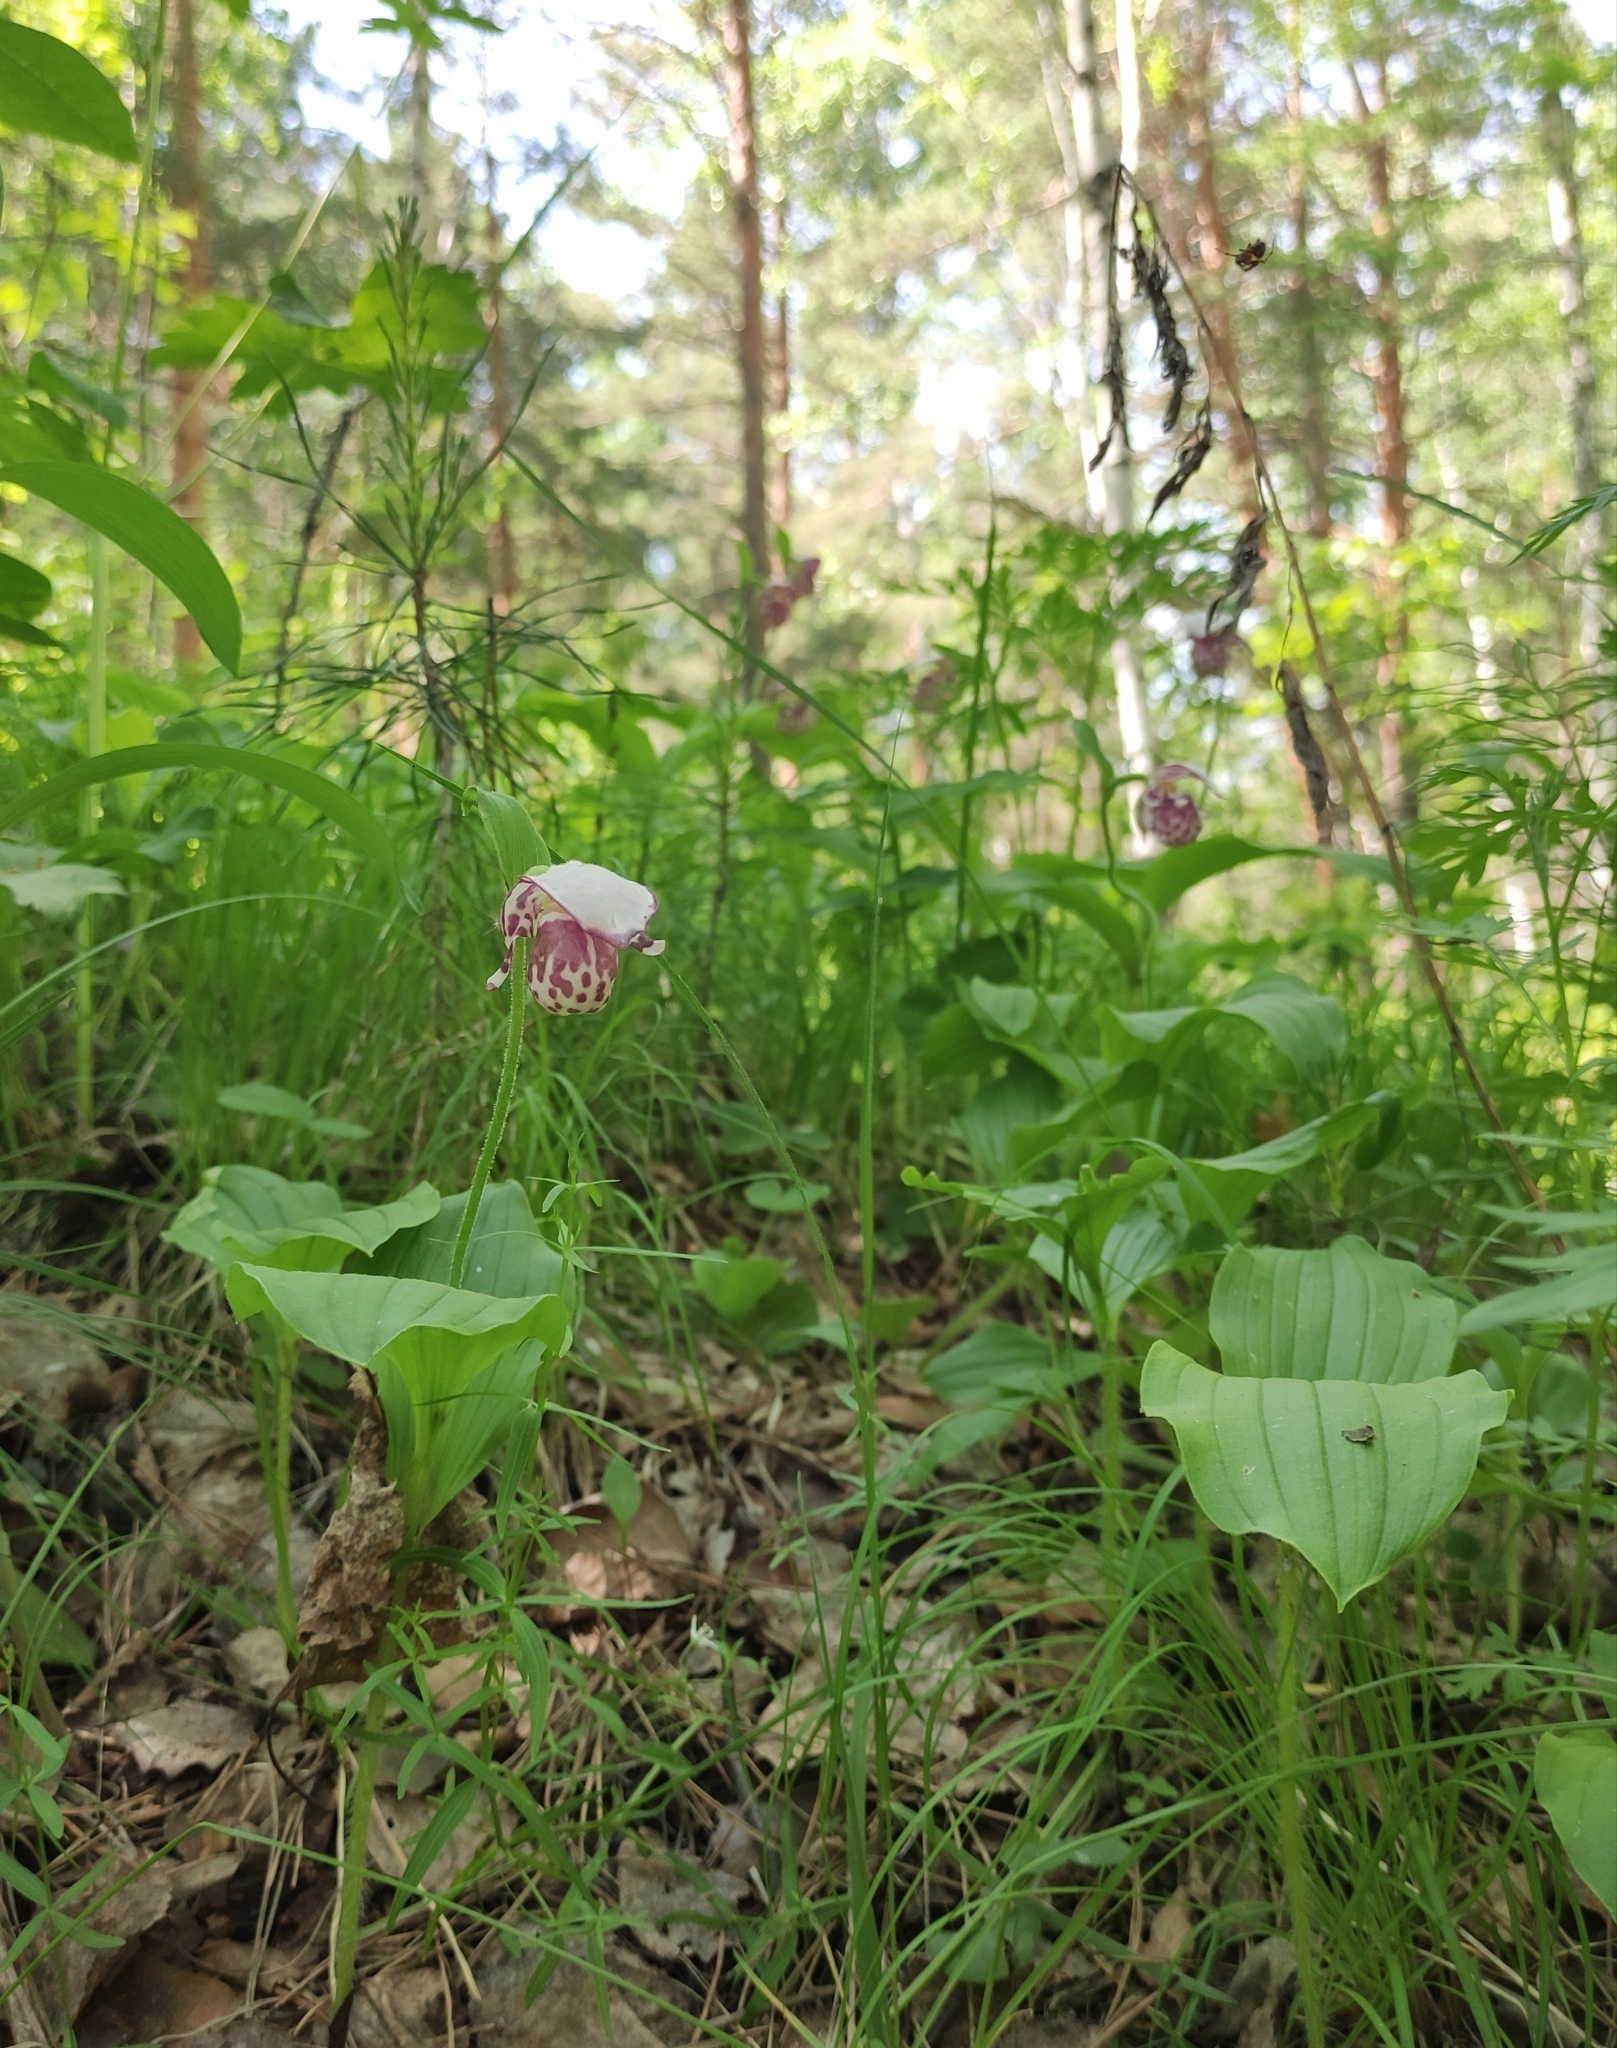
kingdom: Plantae
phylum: Tracheophyta
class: Liliopsida
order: Asparagales
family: Orchidaceae
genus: Cypripedium
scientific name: Cypripedium guttatum
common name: Pink lady slipper
